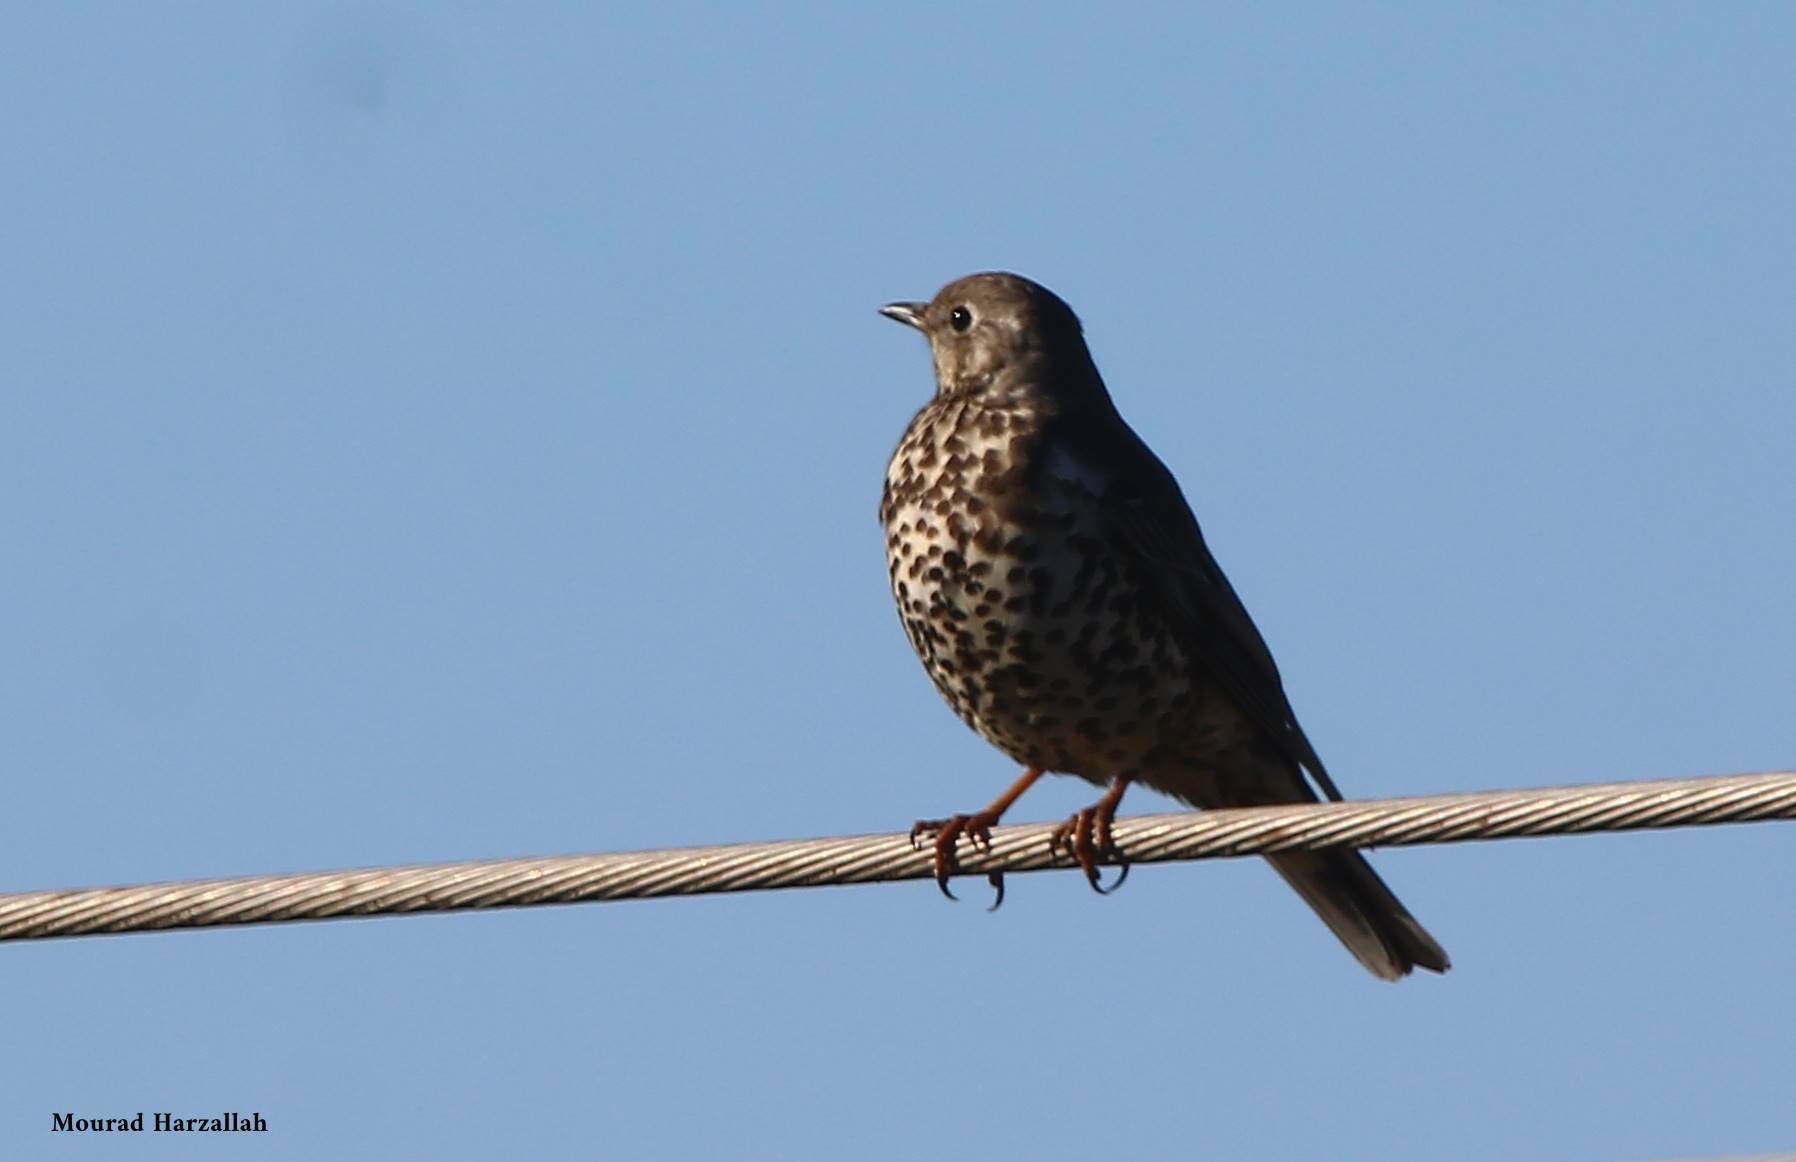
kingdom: Animalia
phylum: Chordata
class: Aves
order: Passeriformes
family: Turdidae
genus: Turdus
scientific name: Turdus viscivorus
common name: Mistle thrush
